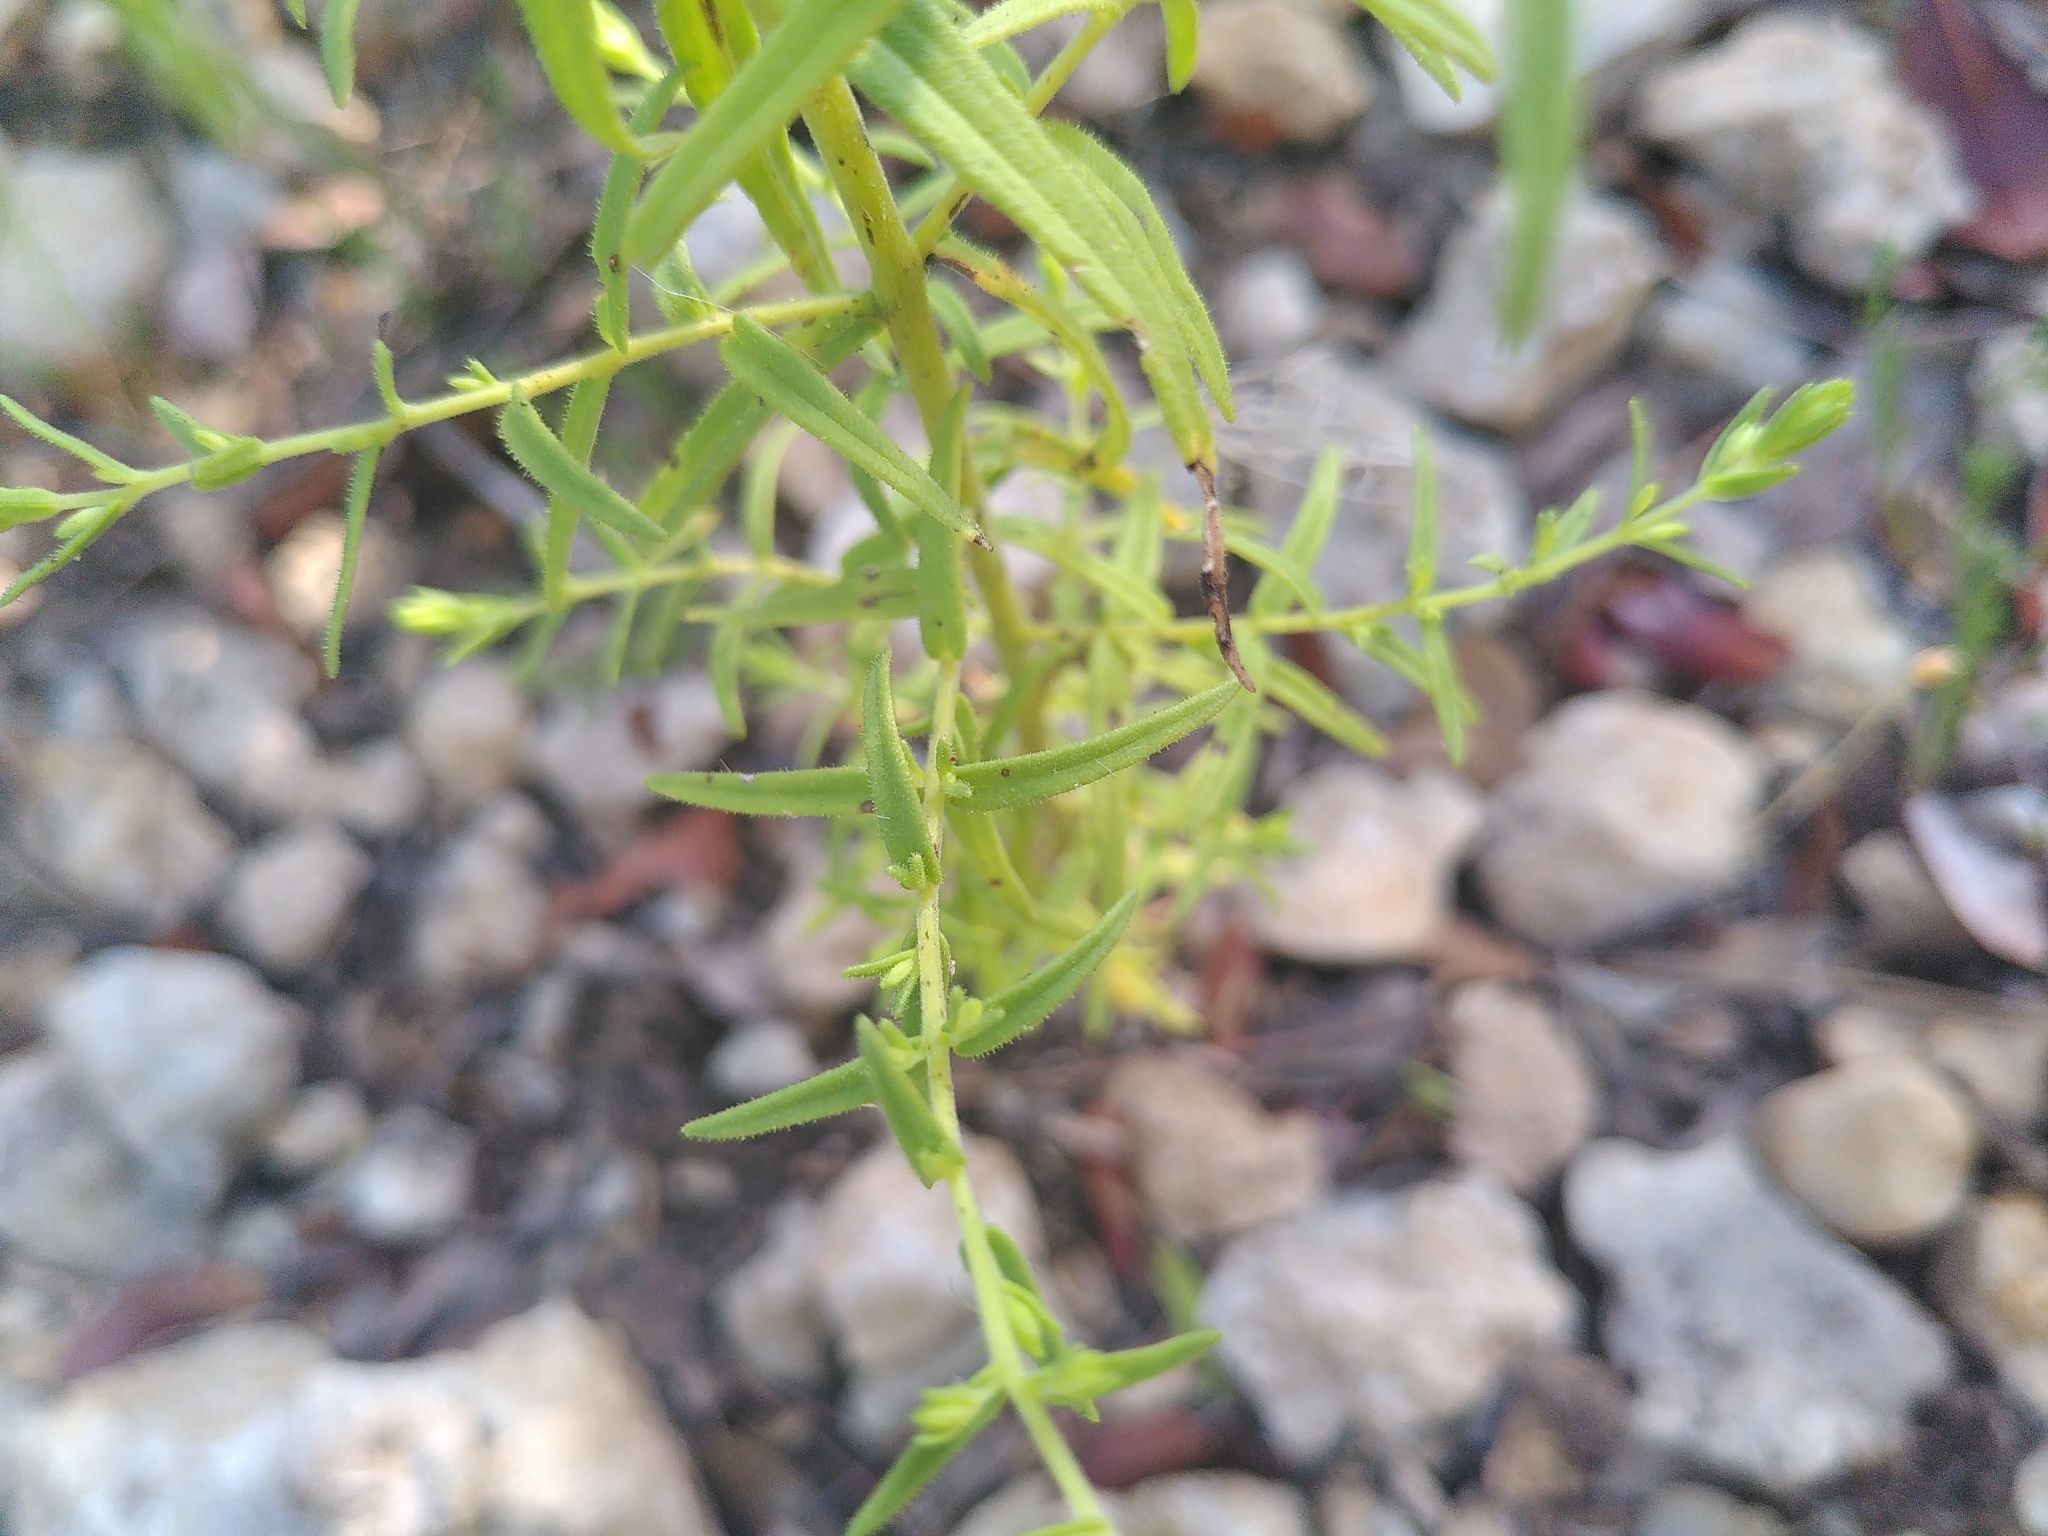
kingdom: Plantae
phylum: Tracheophyta
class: Magnoliopsida
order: Lamiales
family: Orobanchaceae
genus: Odontites
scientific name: Odontites viscosus
